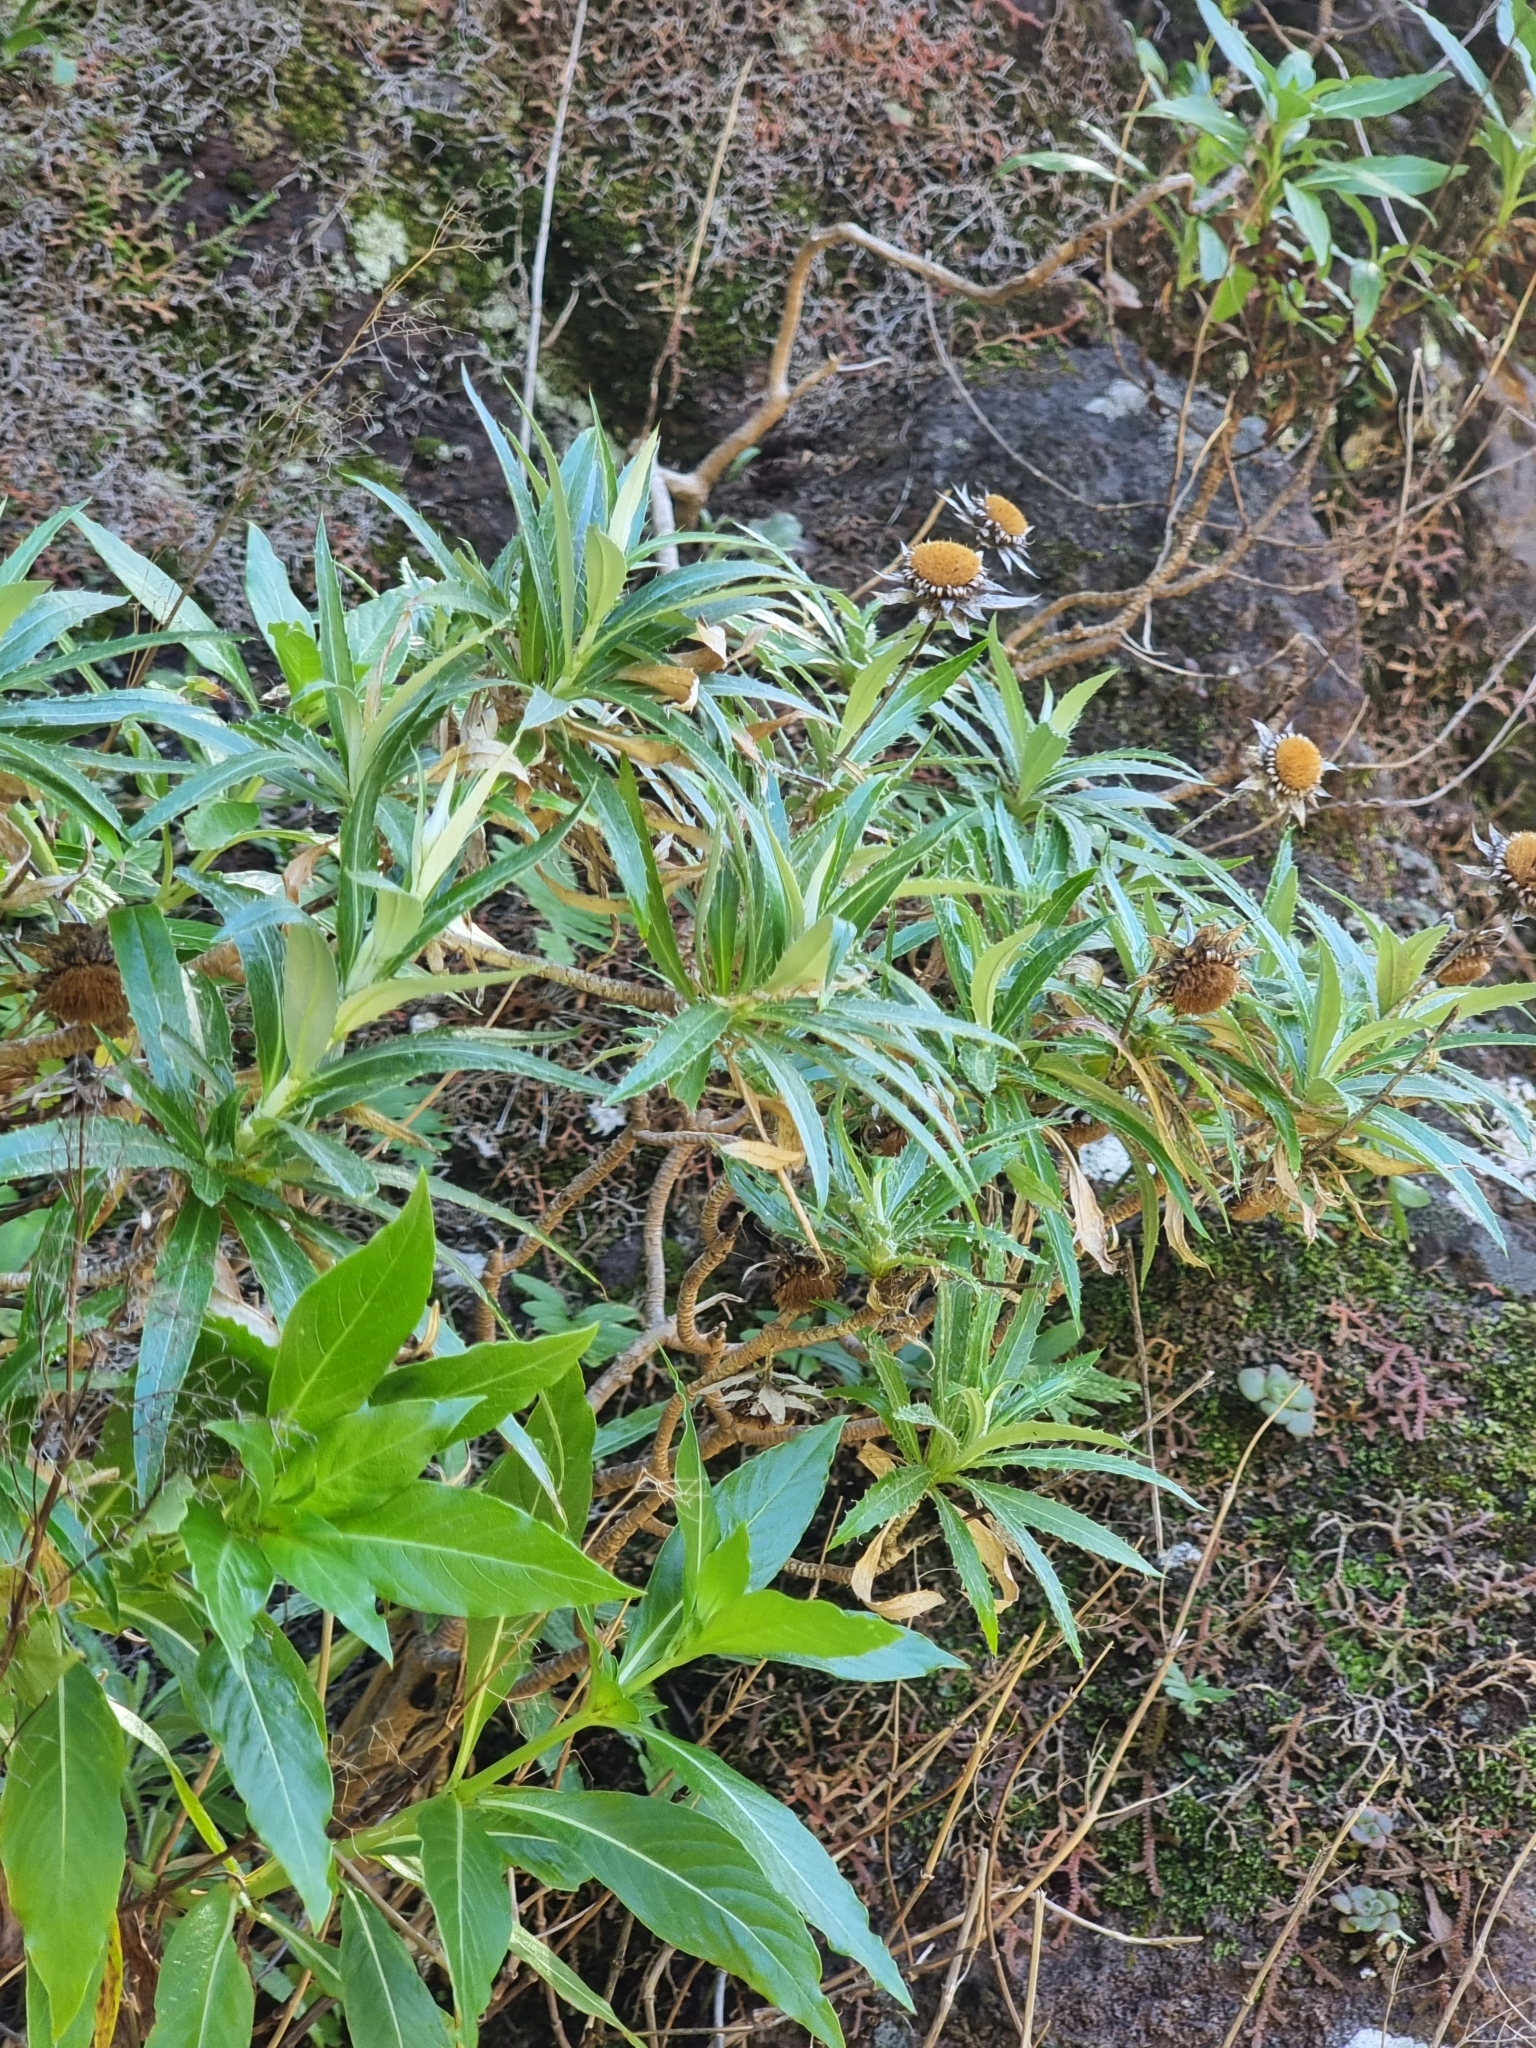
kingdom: Plantae
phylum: Tracheophyta
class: Magnoliopsida
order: Asterales
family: Asteraceae
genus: Carlina
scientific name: Carlina salicifolia
